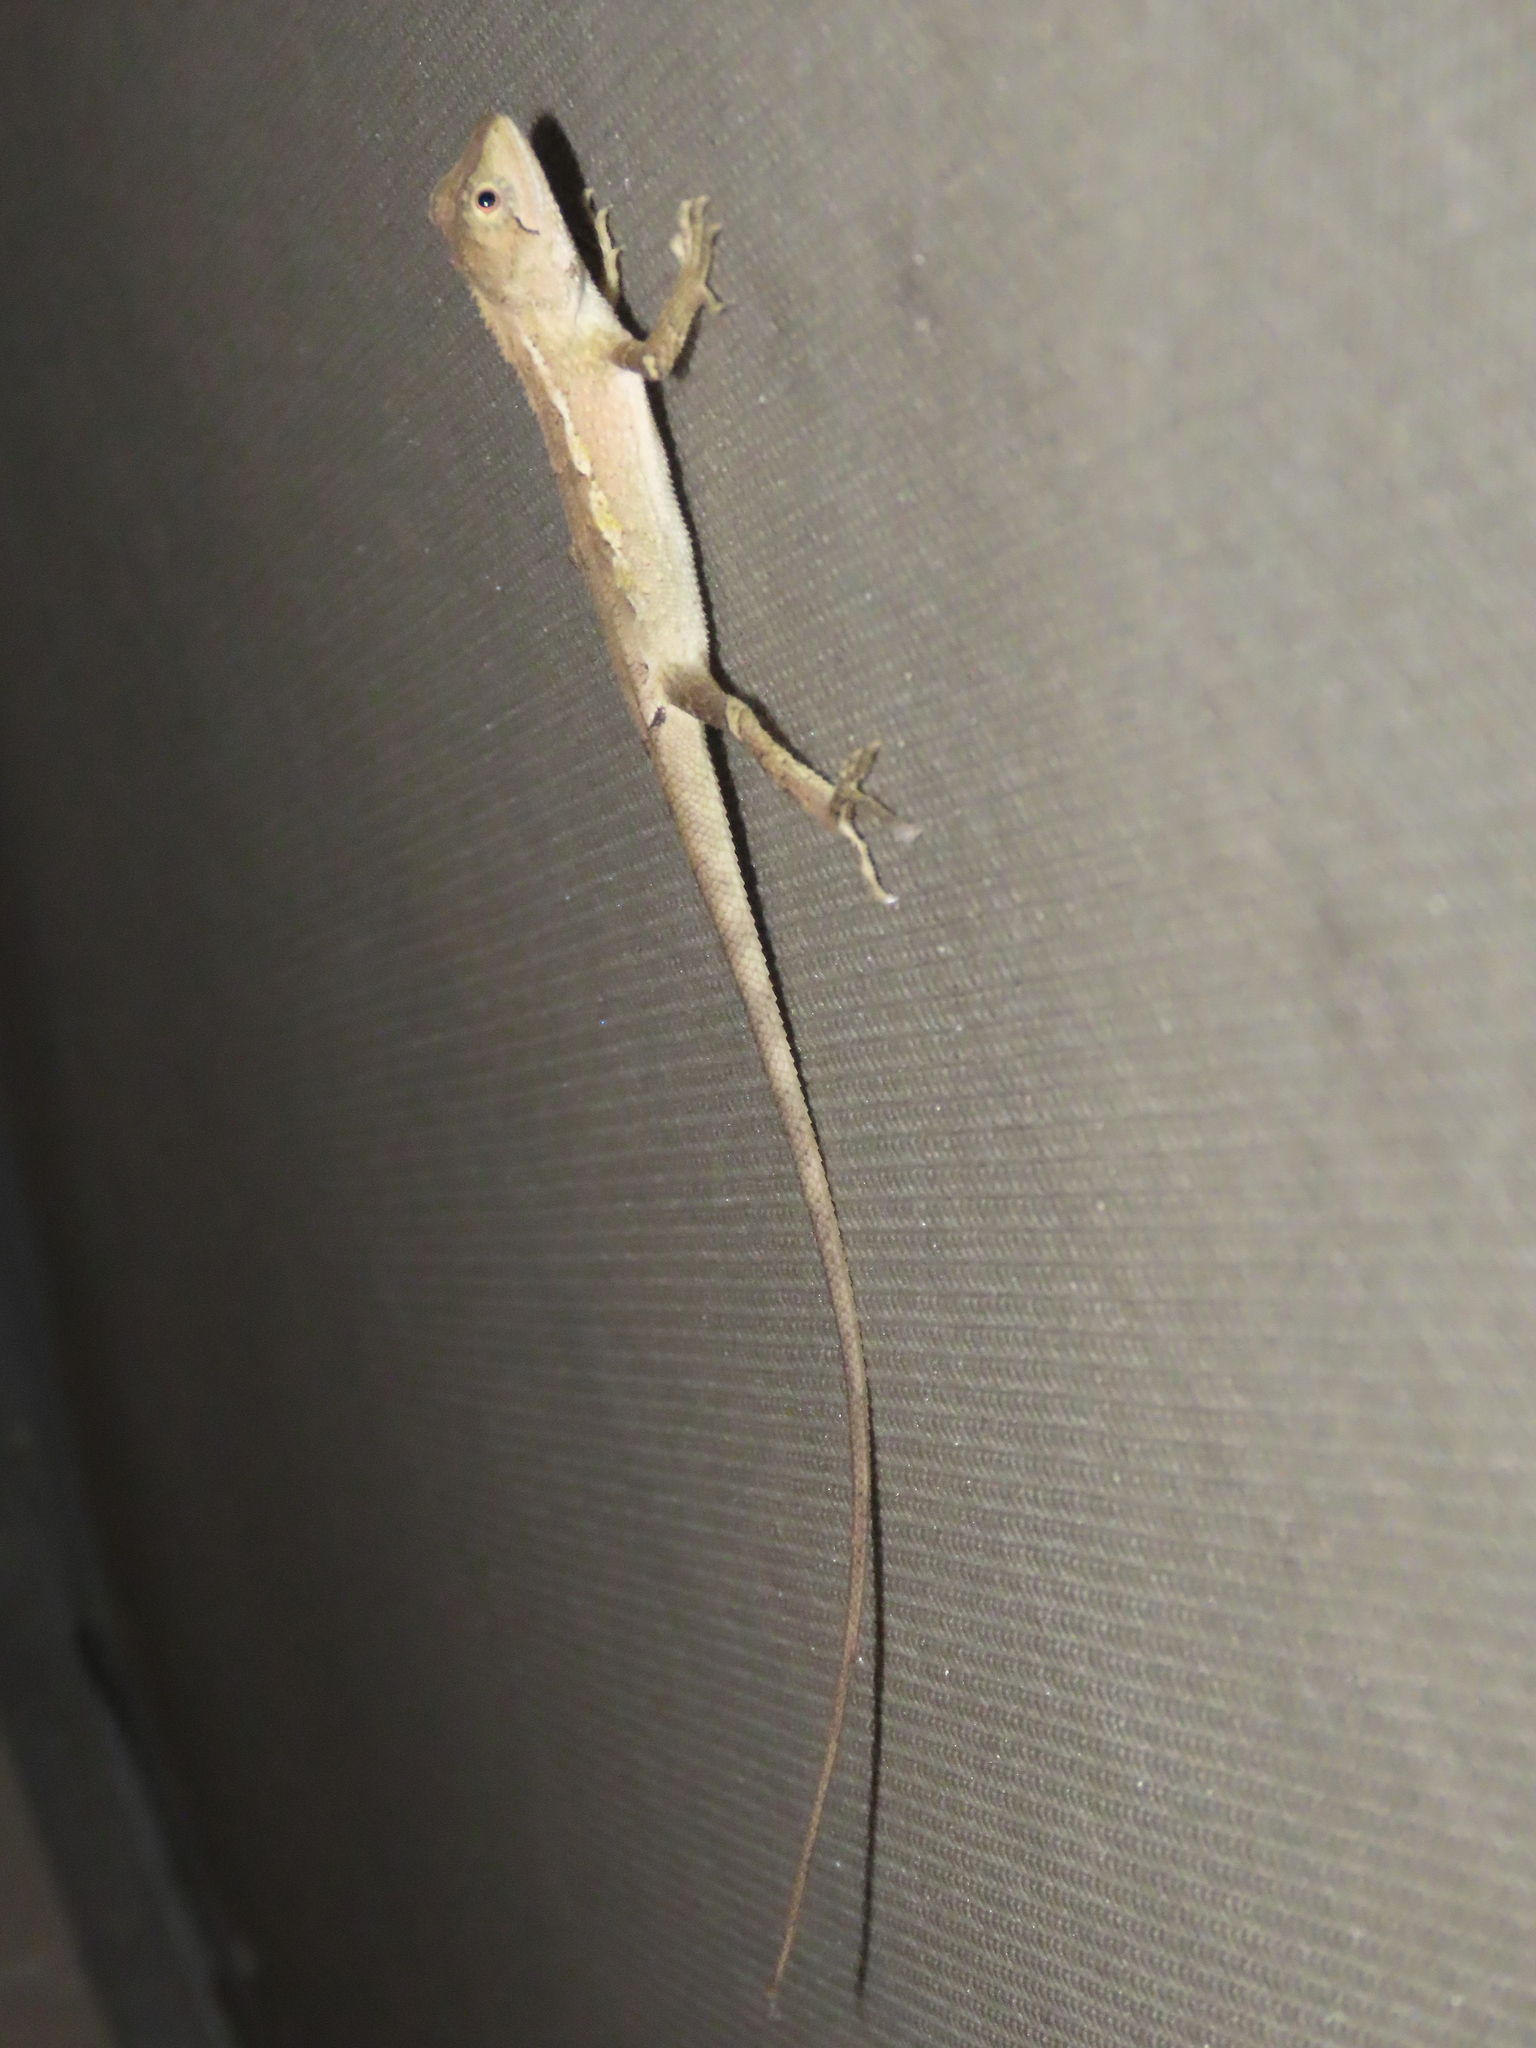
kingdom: Animalia
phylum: Chordata
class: Squamata
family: Agamidae
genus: Diploderma
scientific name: Diploderma swinhonis
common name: Taiwan japalure
